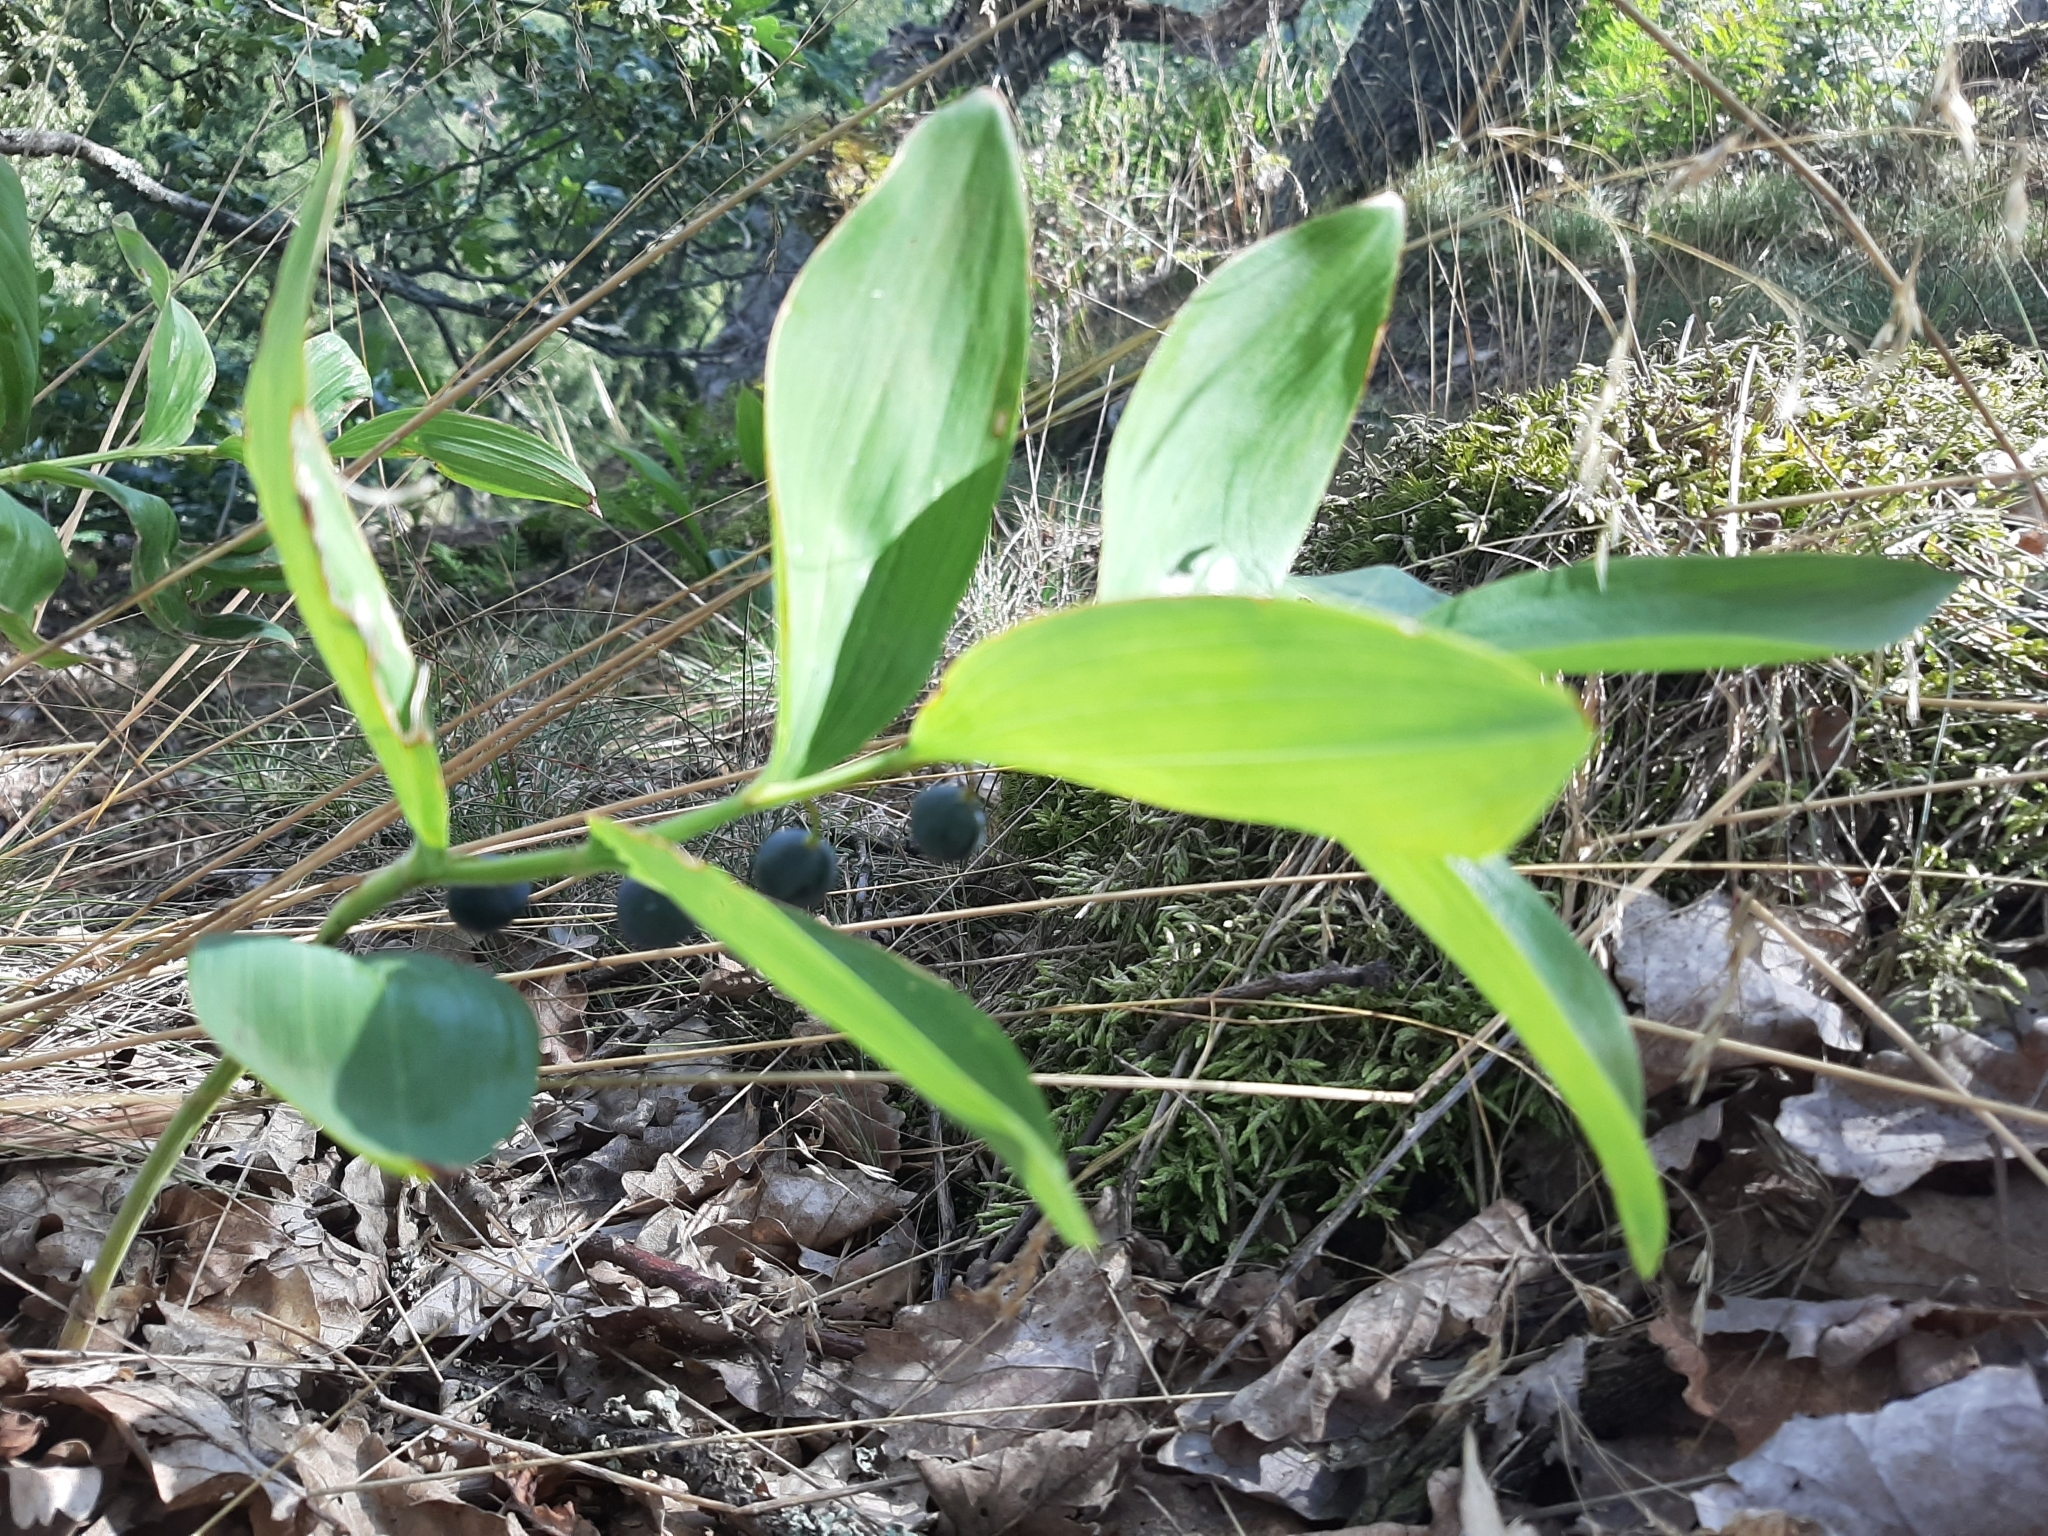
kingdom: Plantae
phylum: Tracheophyta
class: Liliopsida
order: Asparagales
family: Asparagaceae
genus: Polygonatum
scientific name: Polygonatum odoratum
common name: Angular solomon's-seal
